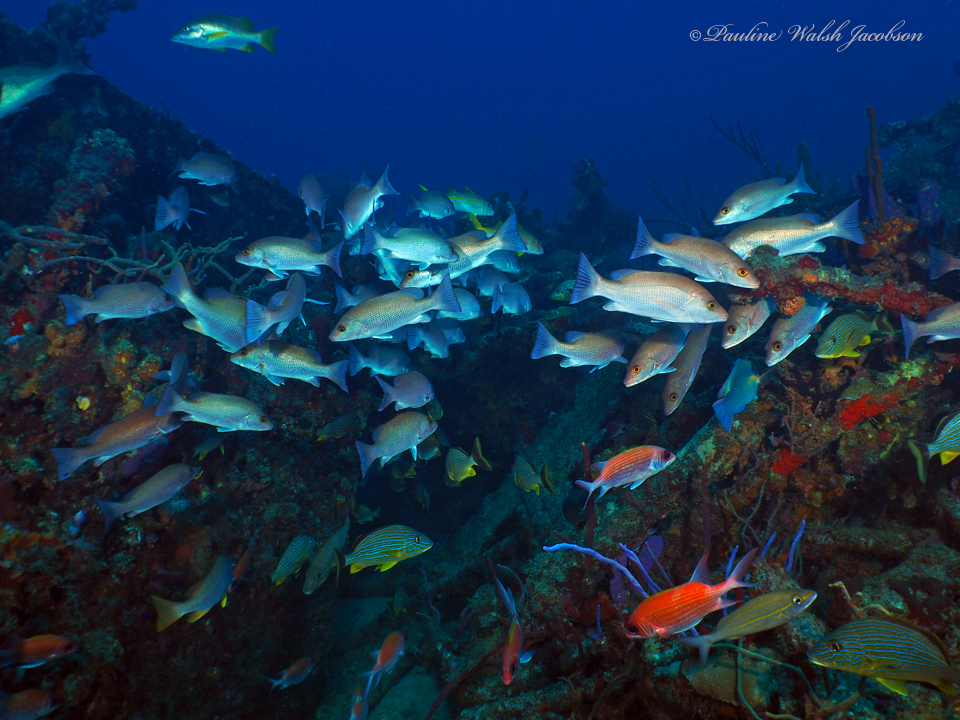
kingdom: Animalia
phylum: Chordata
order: Perciformes
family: Lutjanidae
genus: Lutjanus
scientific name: Lutjanus griseus
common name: Gray snapper
